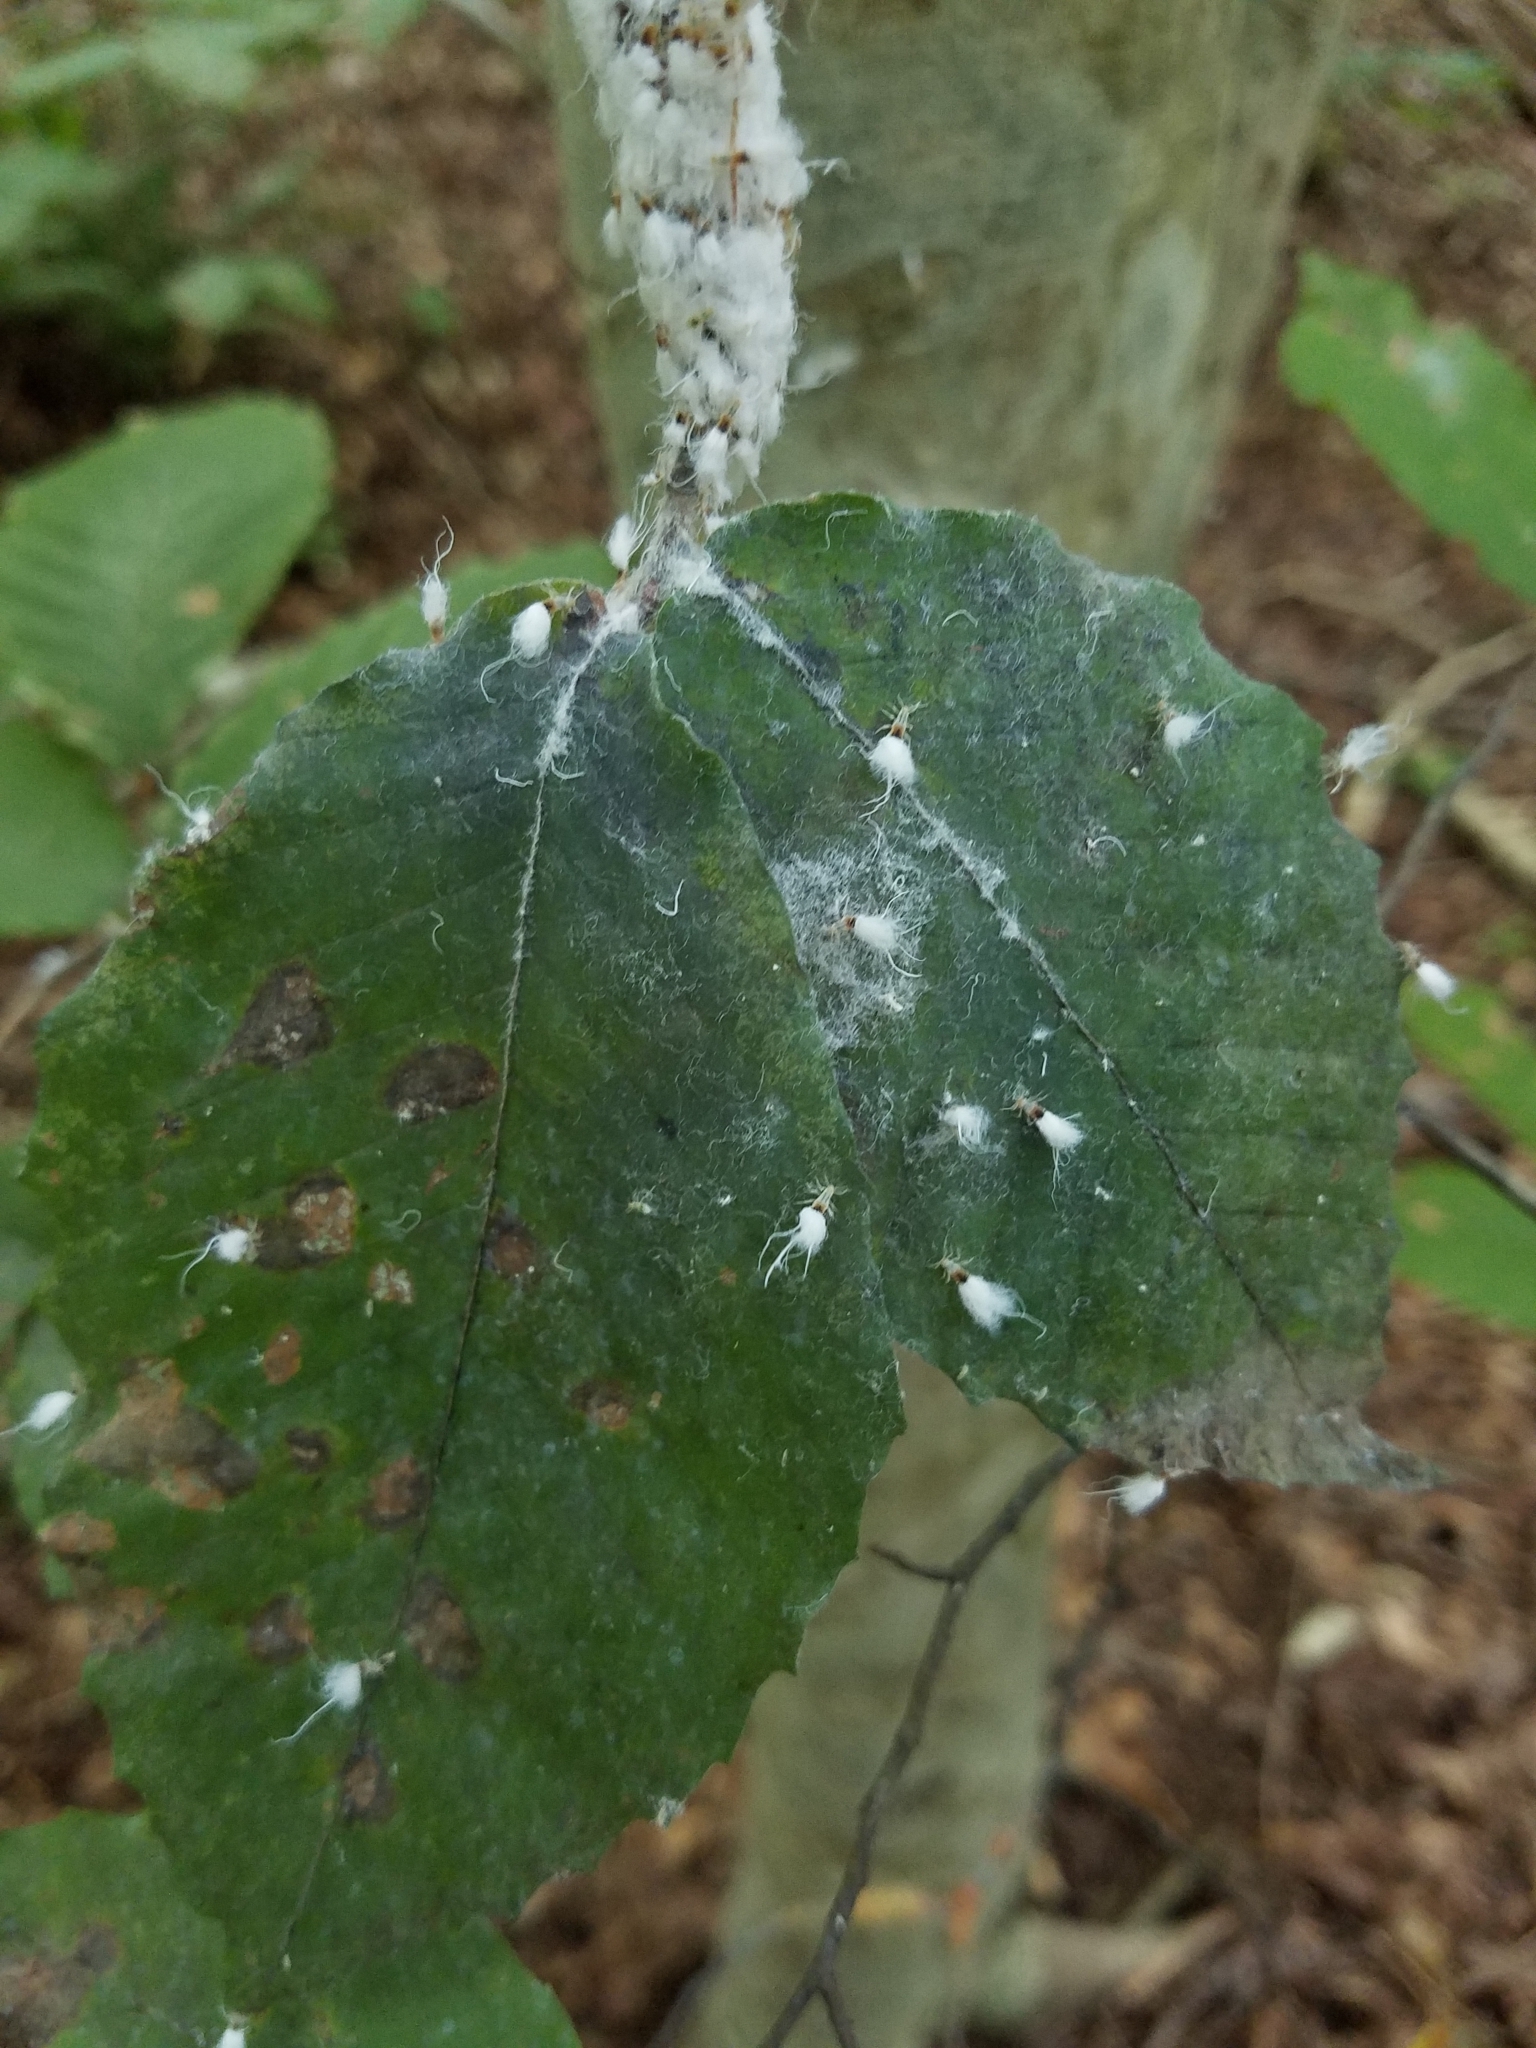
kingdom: Animalia
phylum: Arthropoda
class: Insecta
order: Hemiptera
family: Aphididae
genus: Grylloprociphilus
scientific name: Grylloprociphilus imbricator
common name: Beech blight aphid
